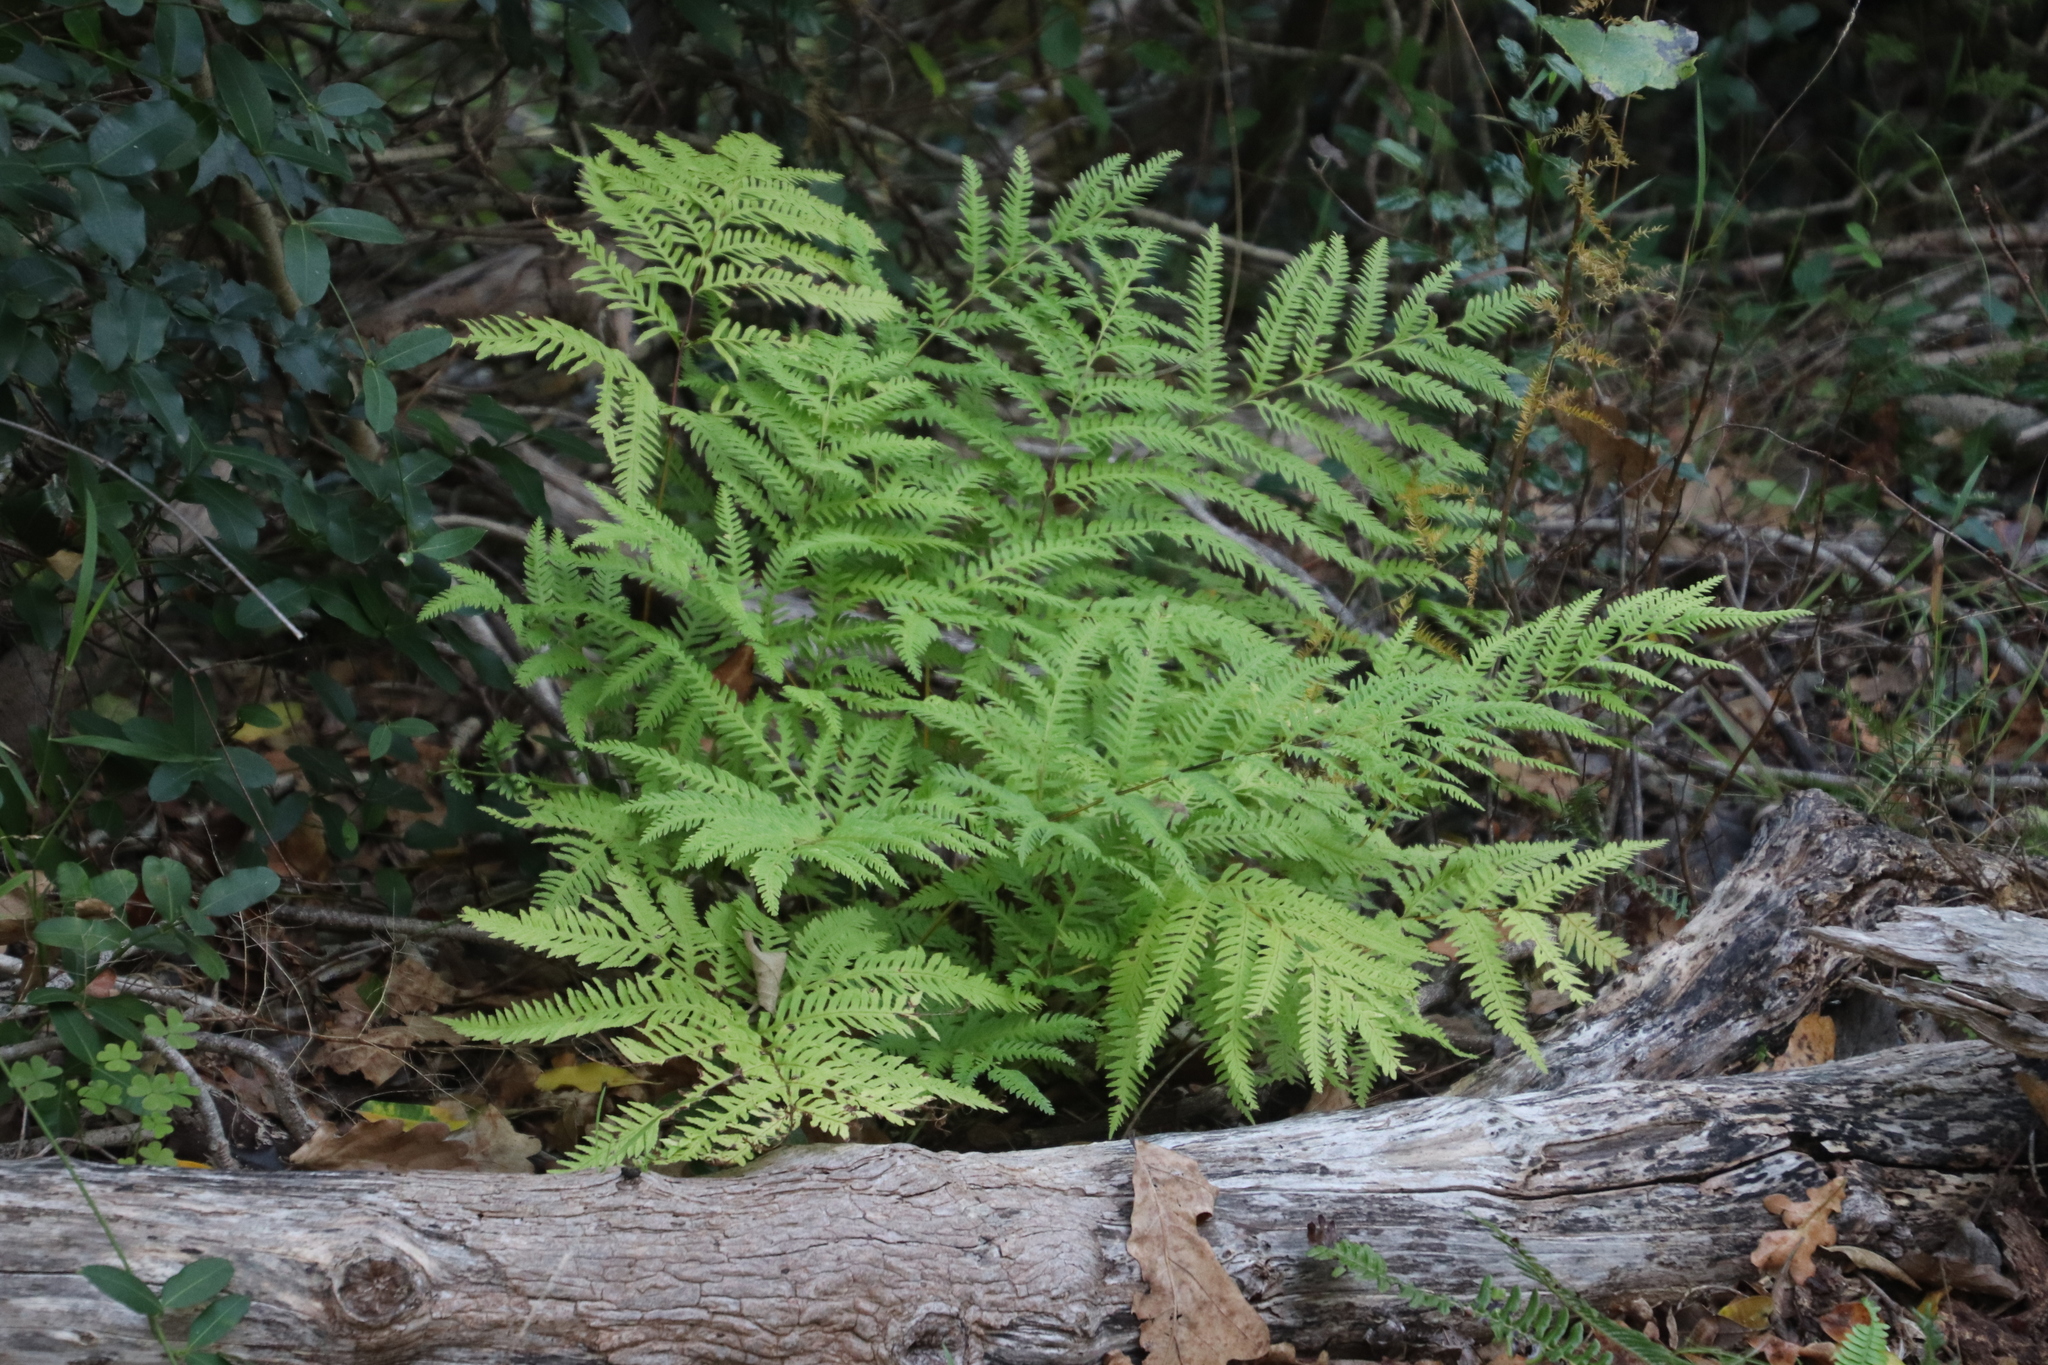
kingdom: Plantae
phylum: Tracheophyta
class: Polypodiopsida
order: Polypodiales
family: Pteridaceae
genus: Pteris
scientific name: Pteris dentata
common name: Toothed brake
